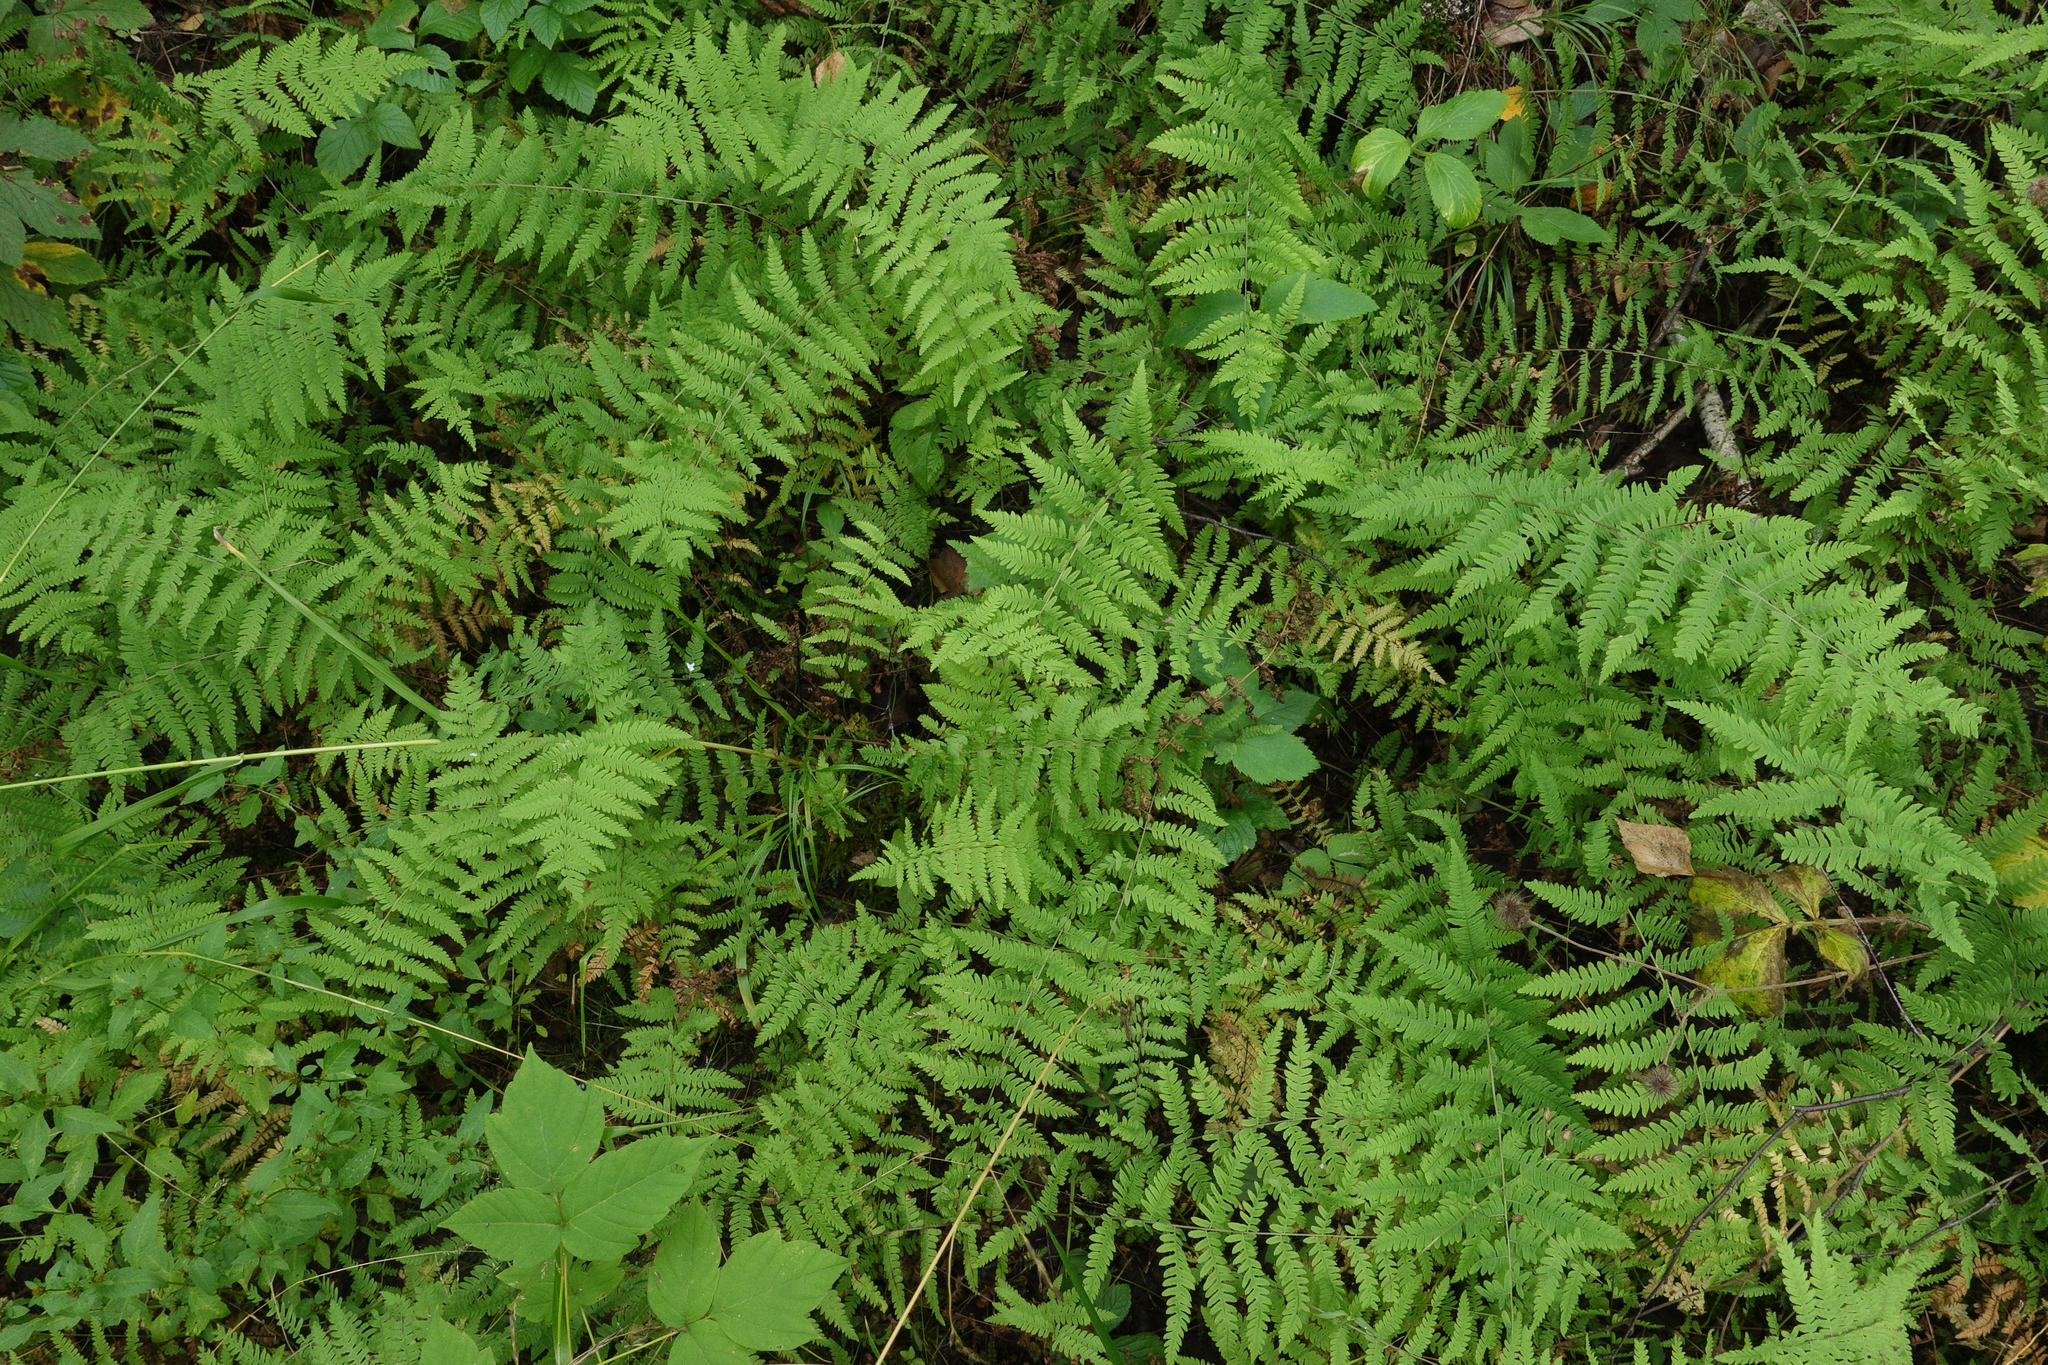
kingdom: Plantae
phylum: Tracheophyta
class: Polypodiopsida
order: Polypodiales
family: Thelypteridaceae
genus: Thelypteris
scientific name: Thelypteris palustris
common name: Marsh fern
